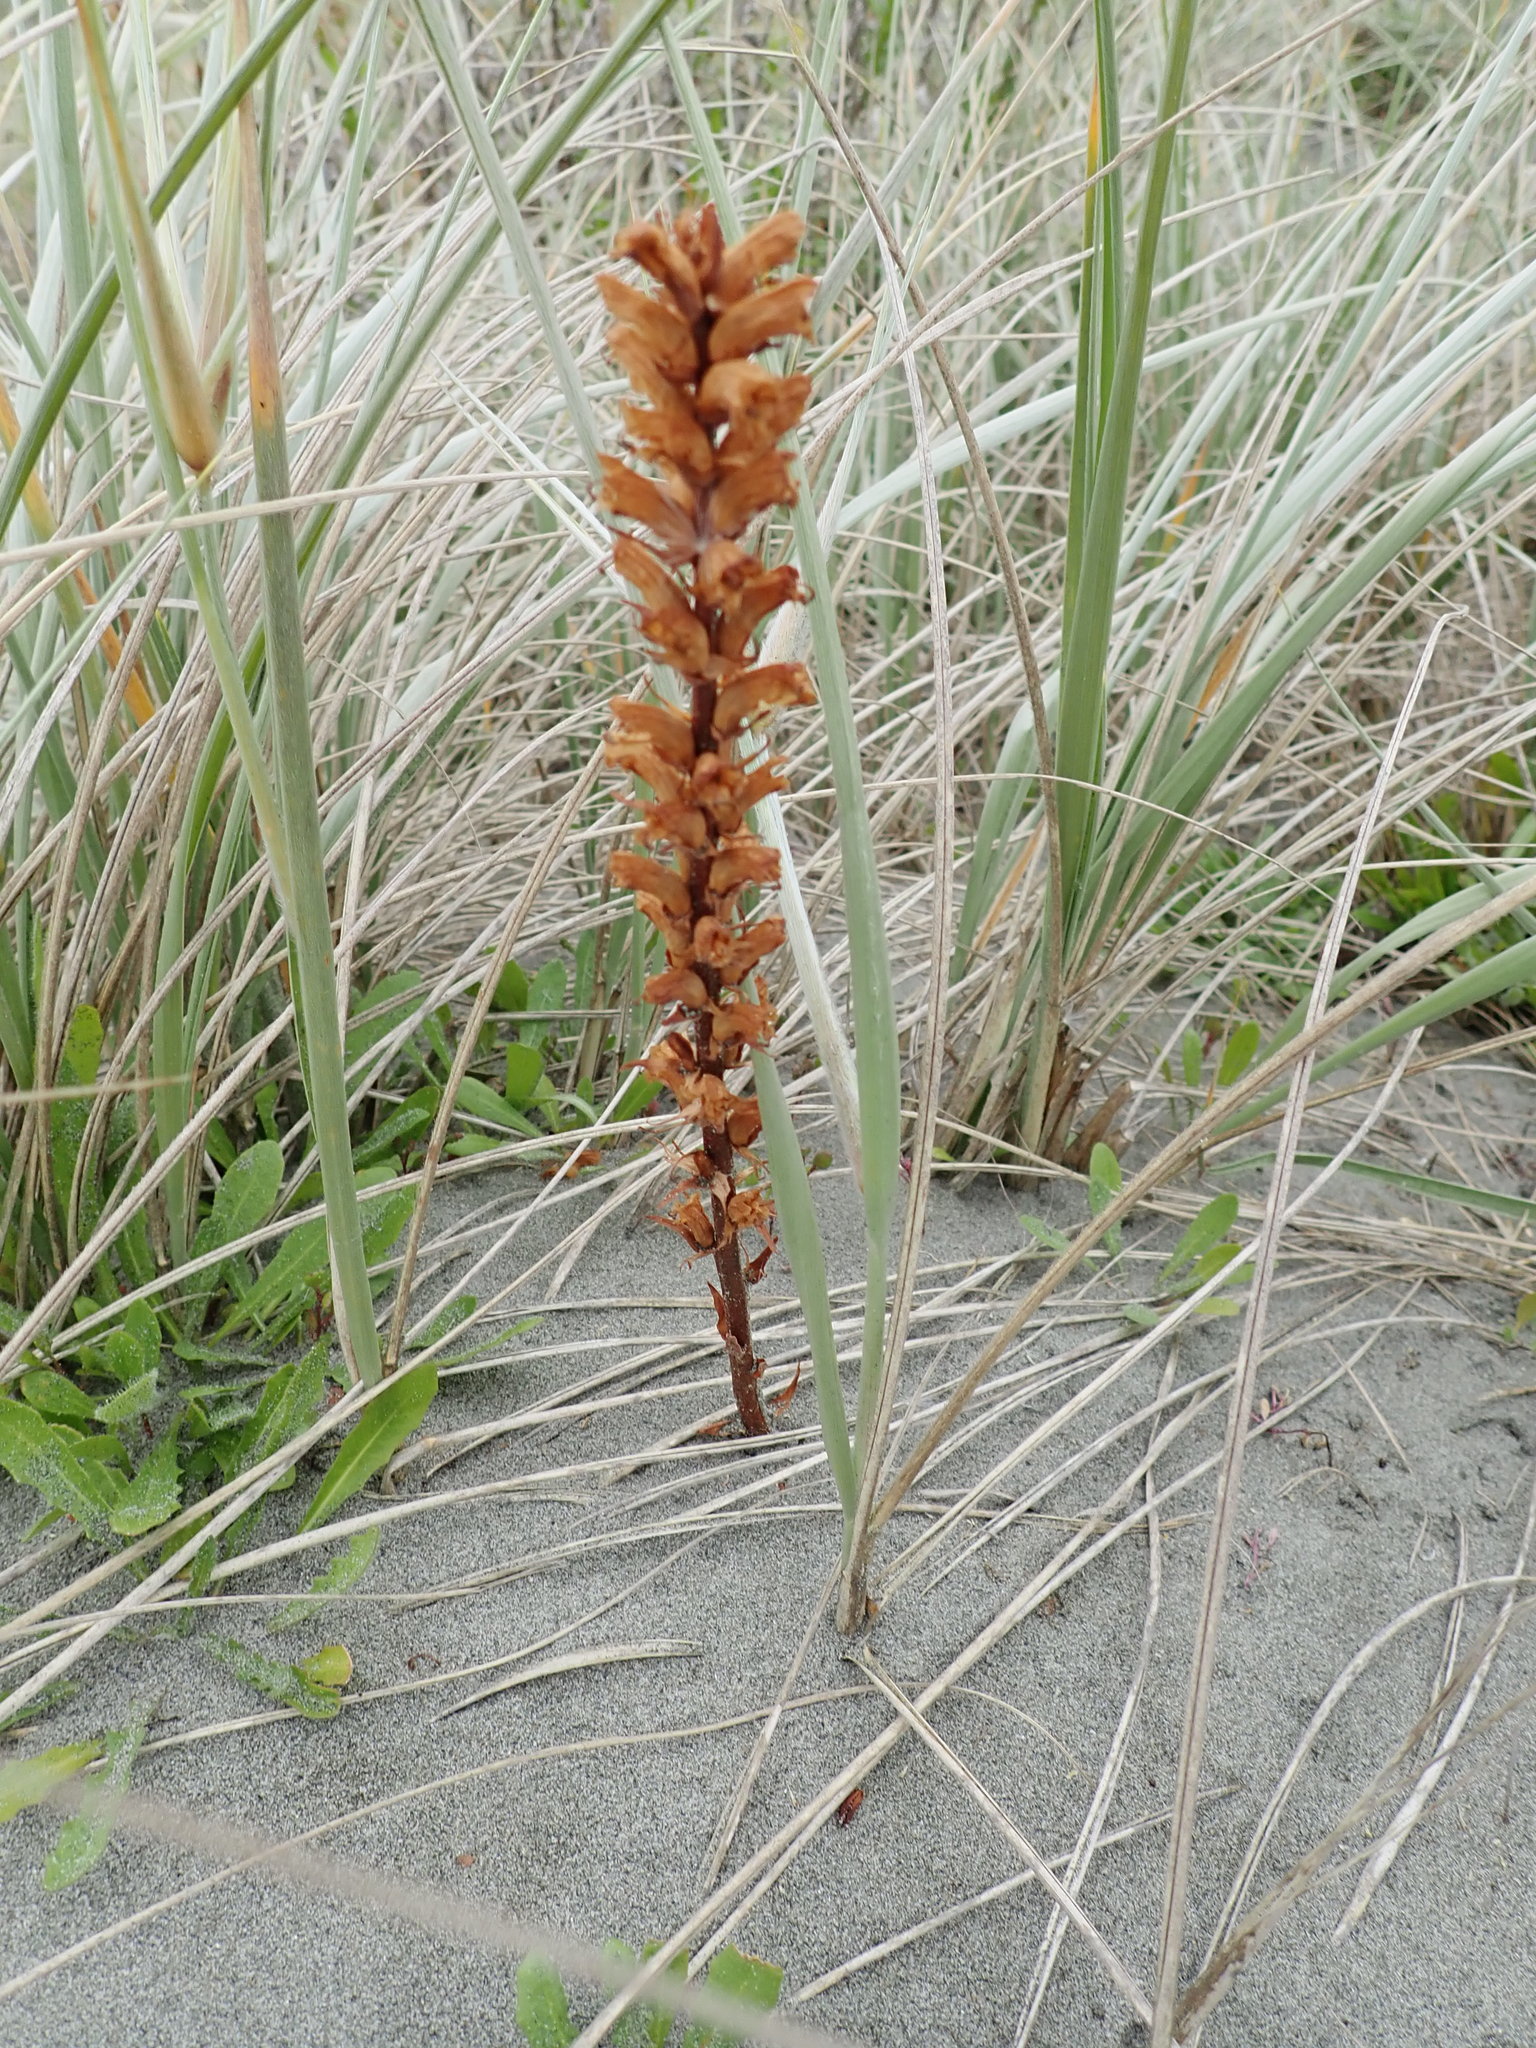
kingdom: Plantae
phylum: Tracheophyta
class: Magnoliopsida
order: Lamiales
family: Orobanchaceae
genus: Orobanche
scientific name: Orobanche minor
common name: Common broomrape
